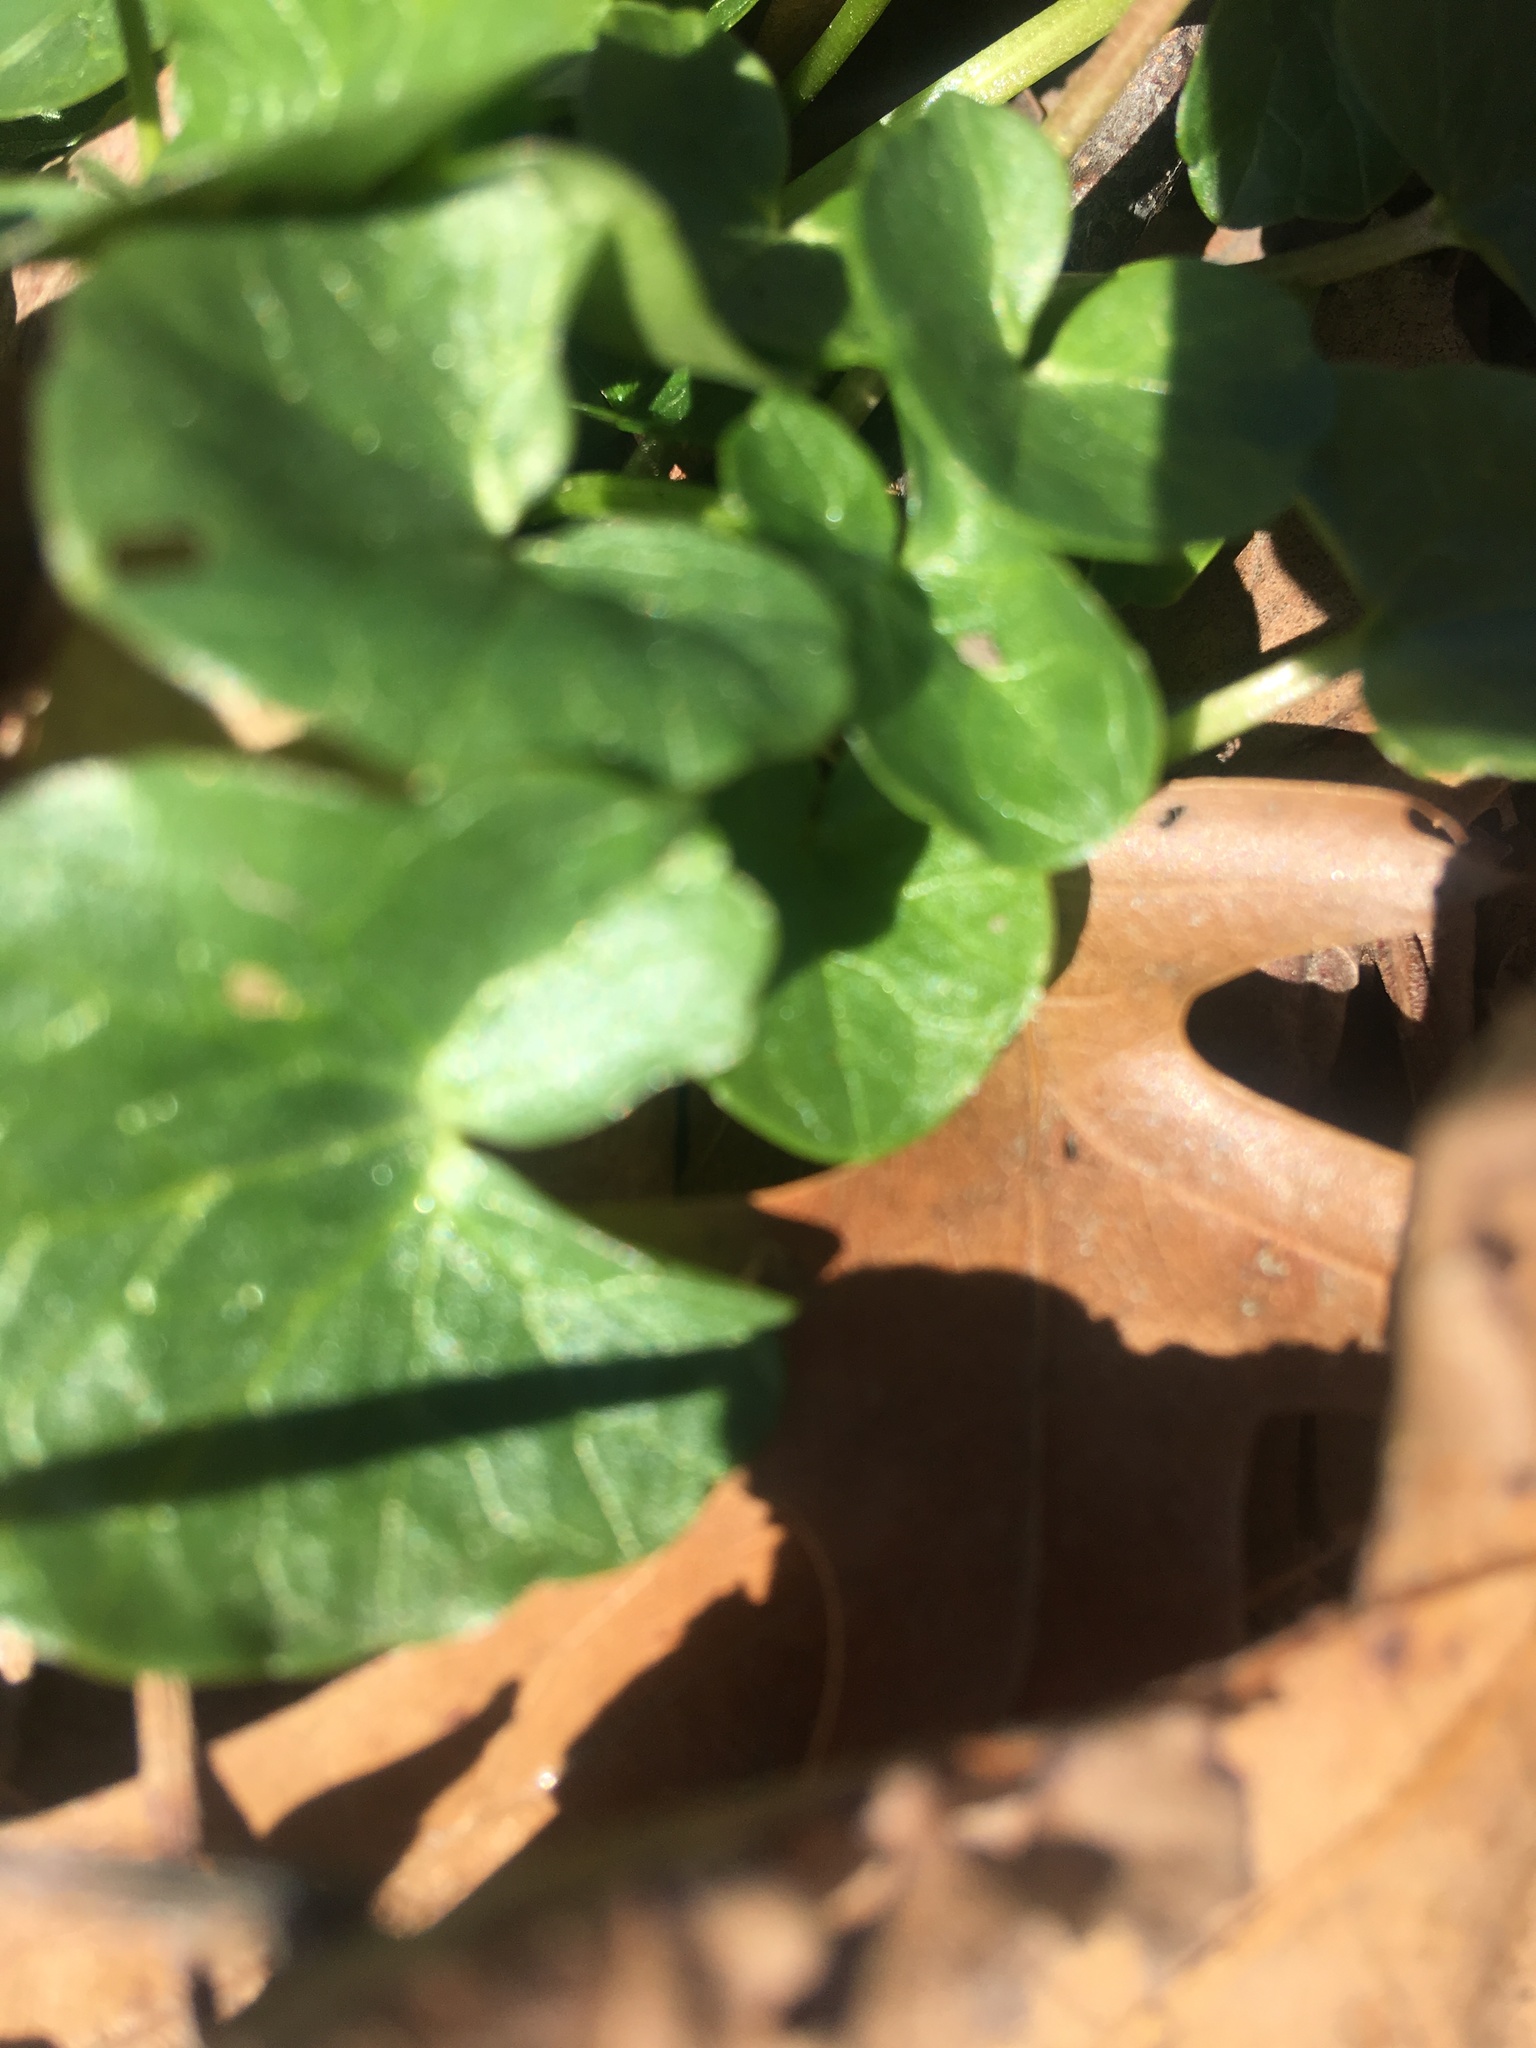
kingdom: Plantae
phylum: Tracheophyta
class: Magnoliopsida
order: Ranunculales
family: Ranunculaceae
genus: Ficaria
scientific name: Ficaria verna
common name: Lesser celandine
